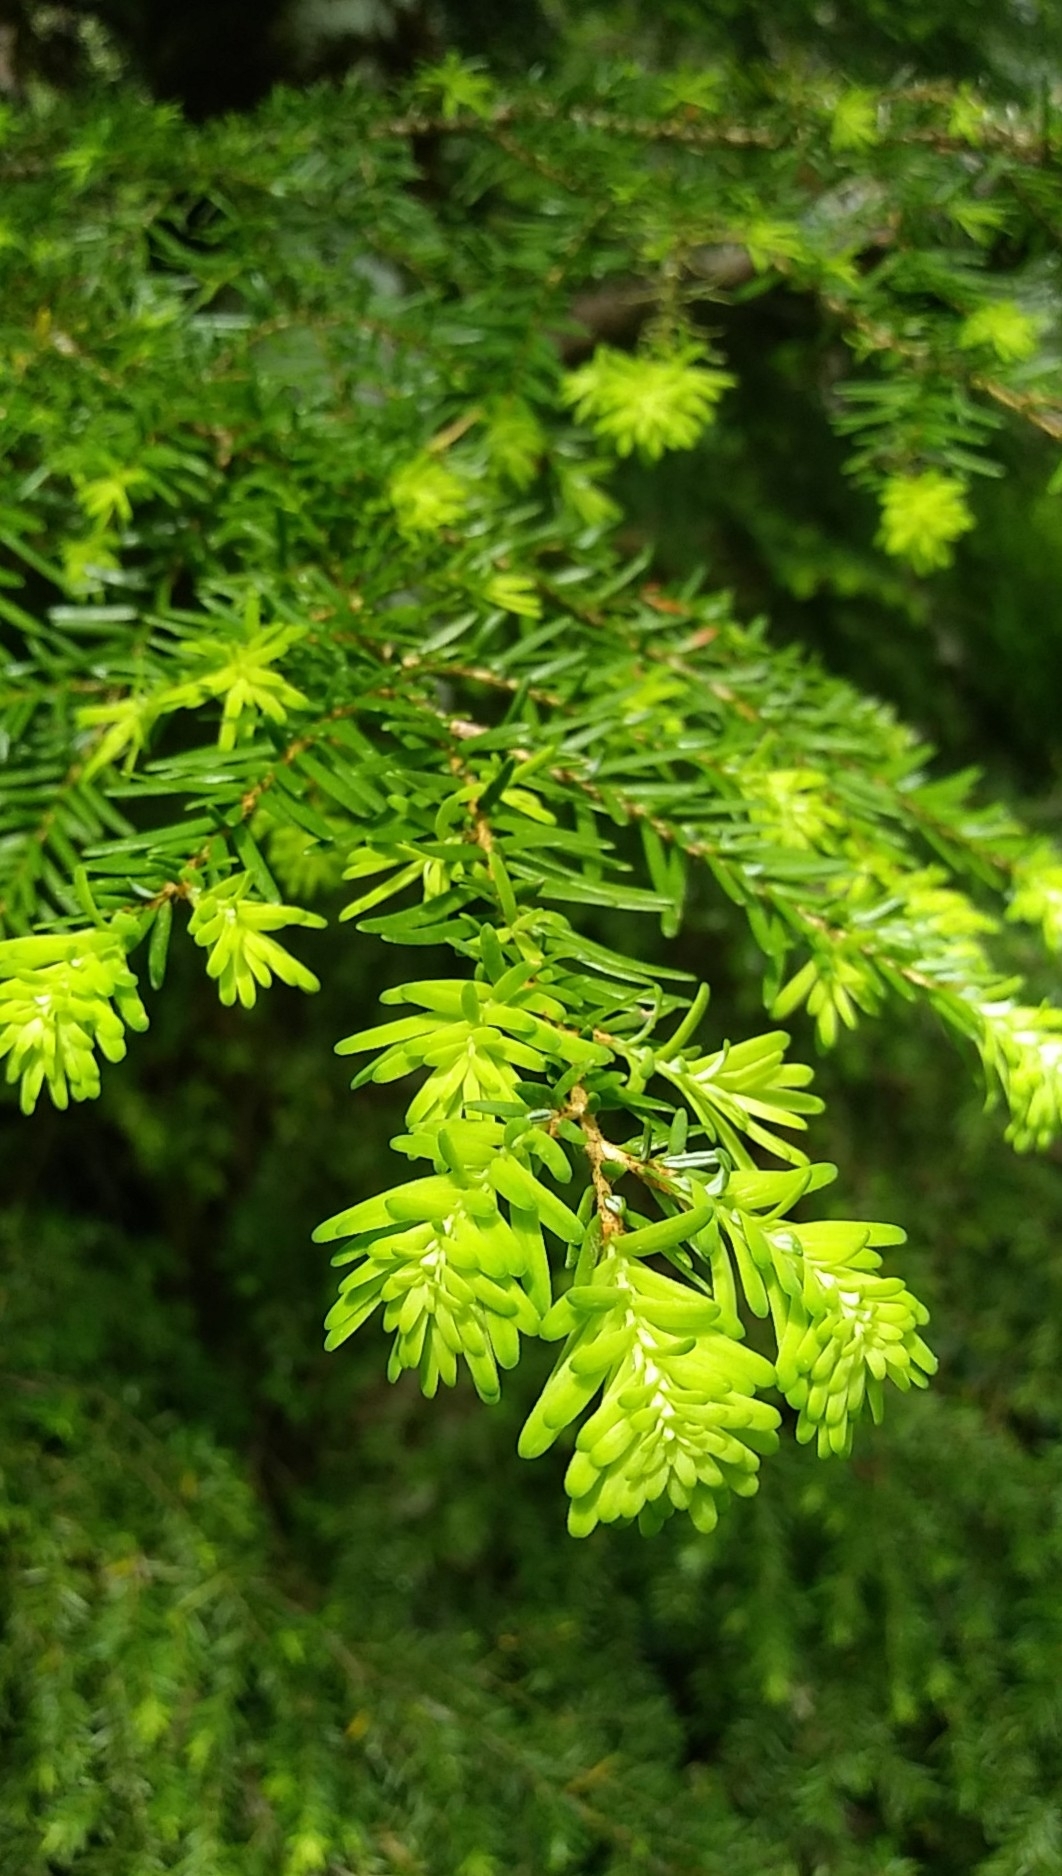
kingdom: Plantae
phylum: Tracheophyta
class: Pinopsida
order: Pinales
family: Pinaceae
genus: Tsuga
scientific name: Tsuga heterophylla
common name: Western hemlock
